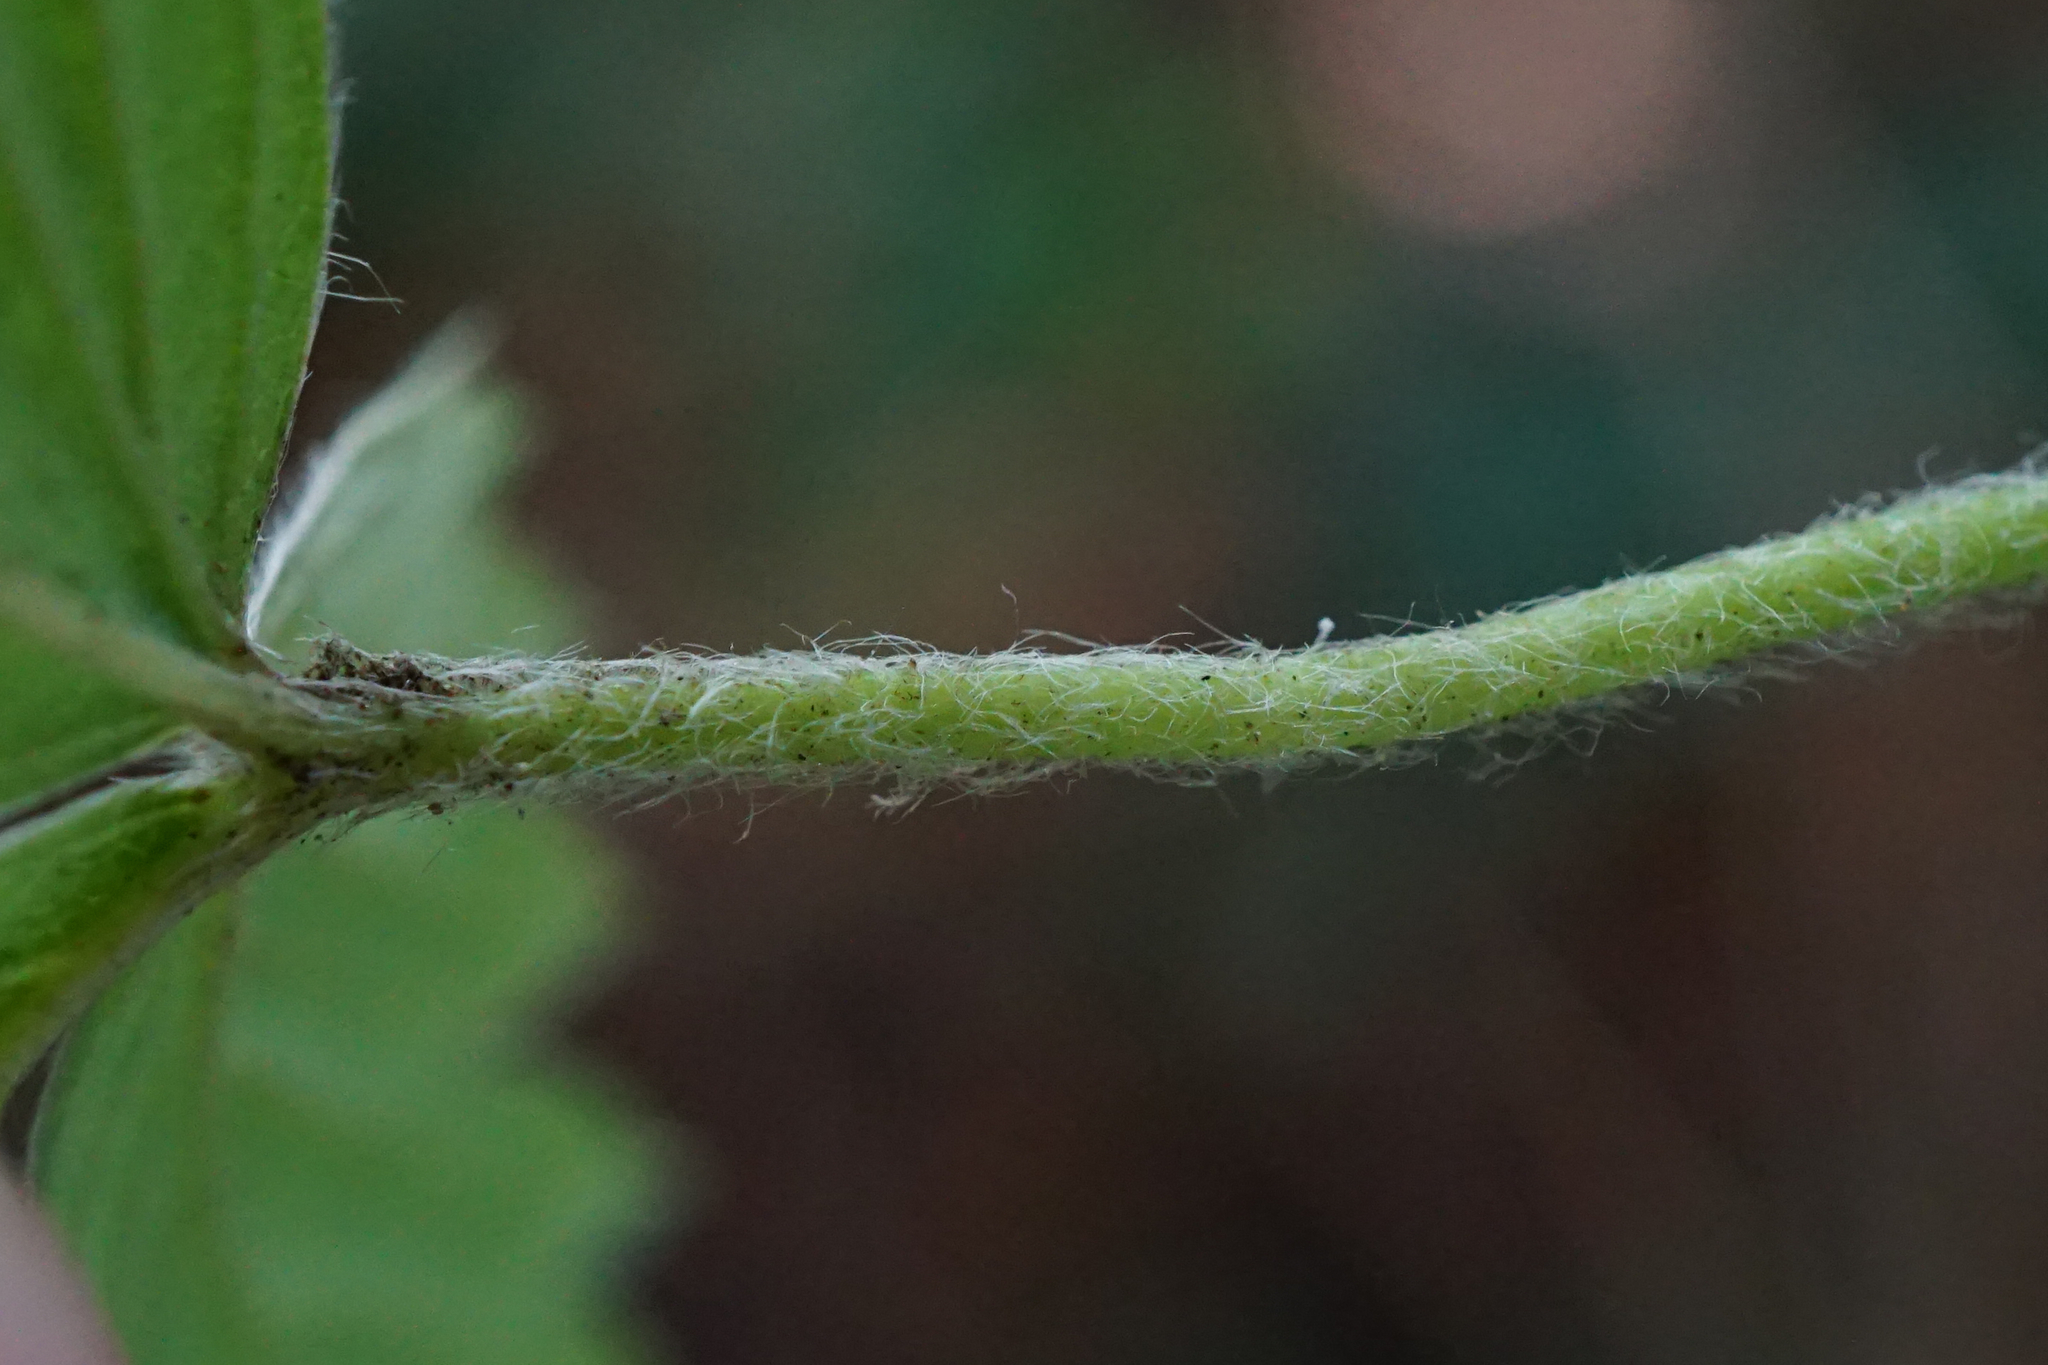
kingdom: Plantae
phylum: Tracheophyta
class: Magnoliopsida
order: Rosales
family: Rosaceae
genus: Fragaria
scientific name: Fragaria vesca
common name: Wild strawberry
